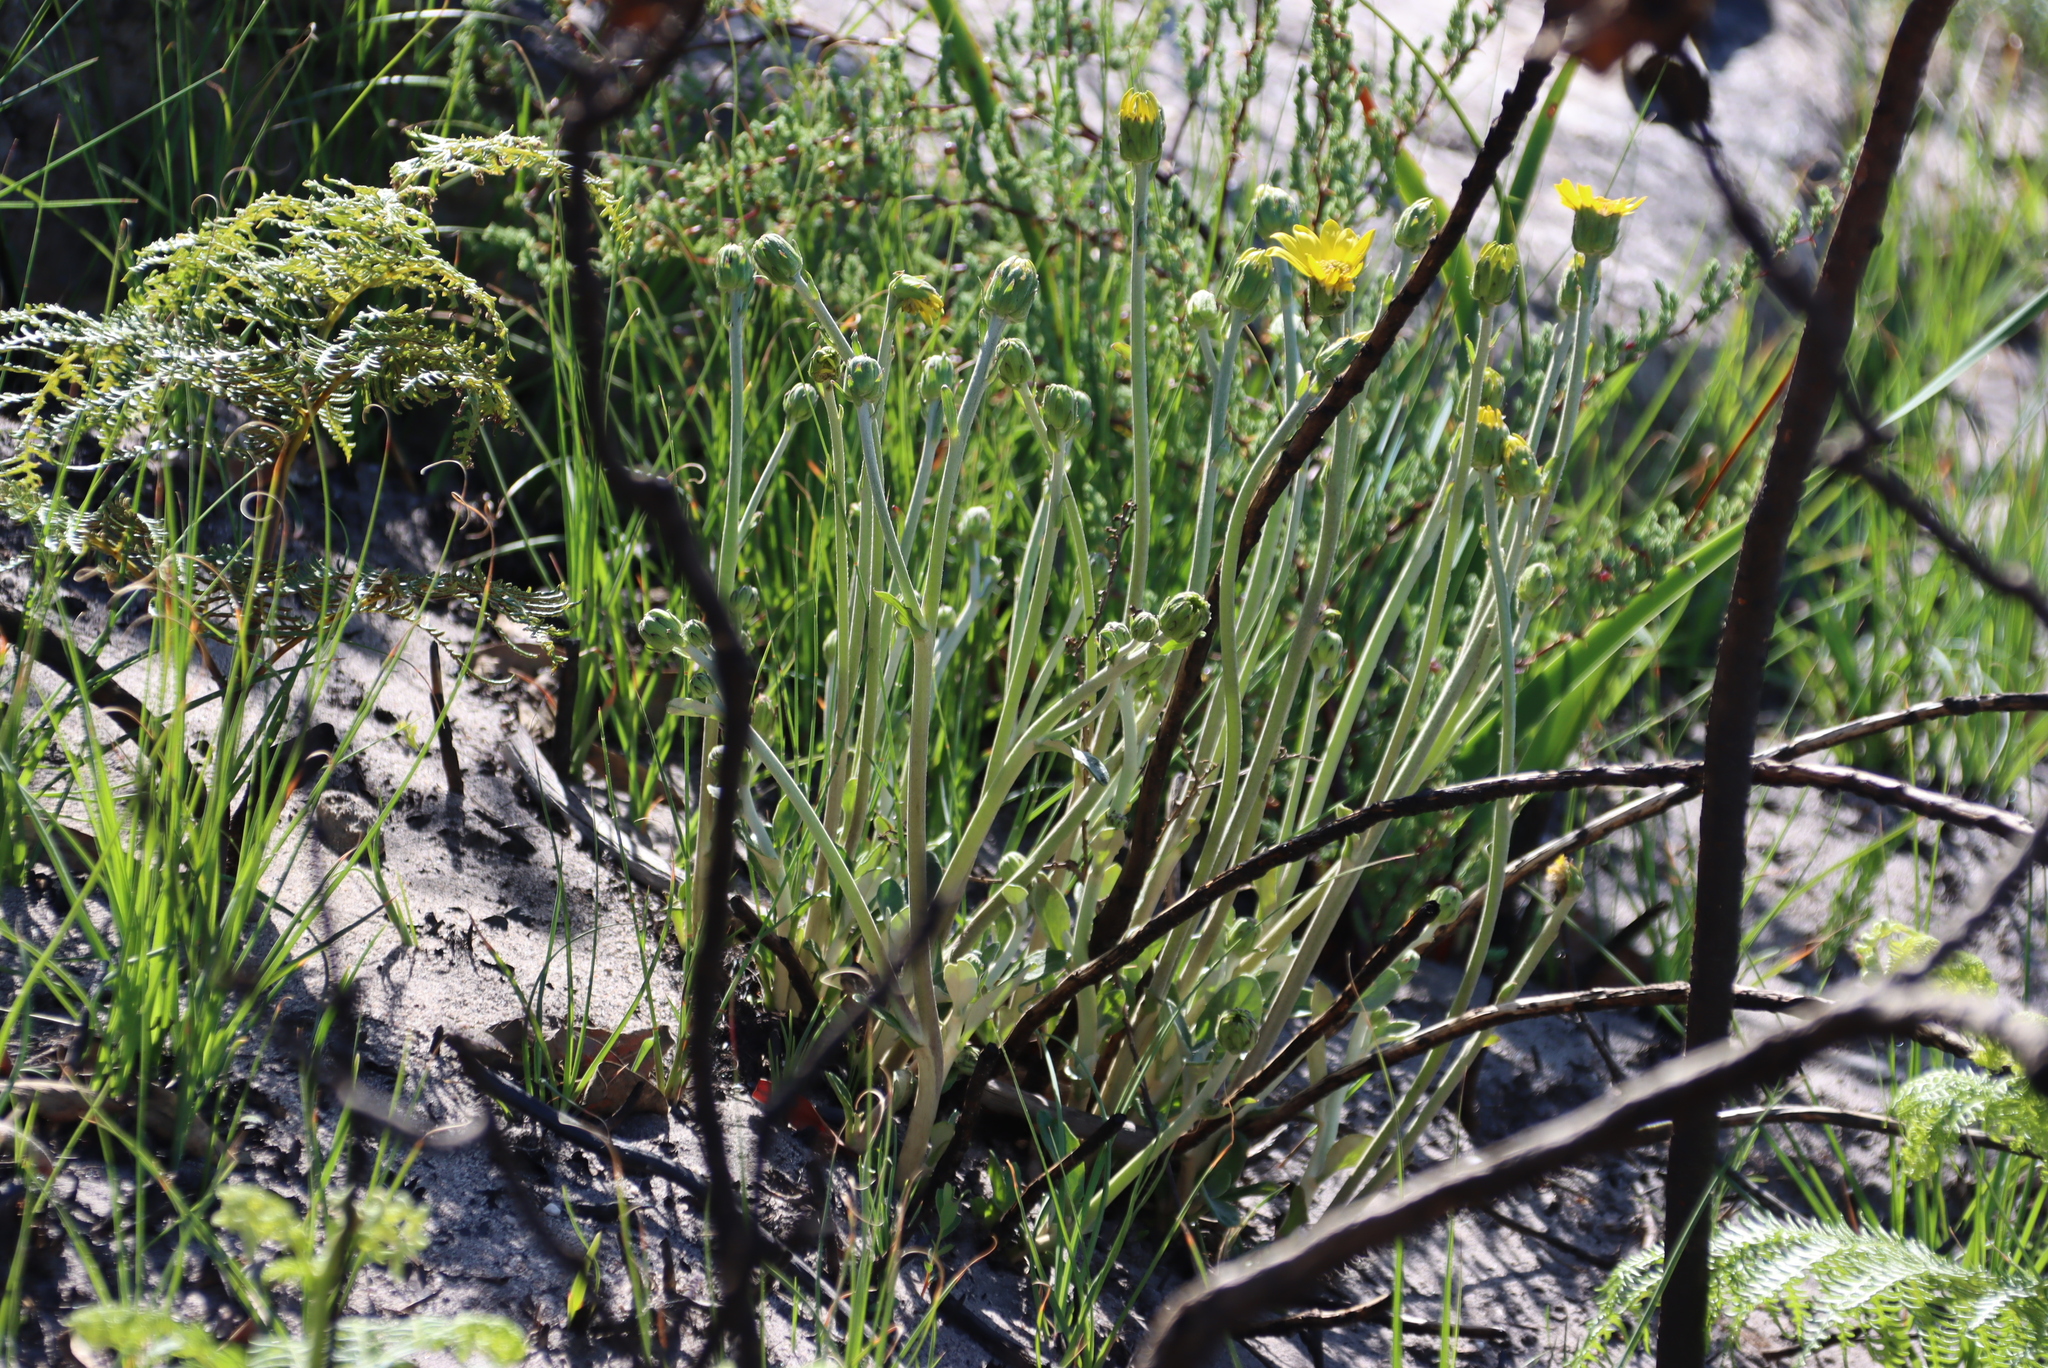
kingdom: Plantae
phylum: Tracheophyta
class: Magnoliopsida
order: Asterales
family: Asteraceae
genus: Capelio
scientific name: Capelio tabularis
